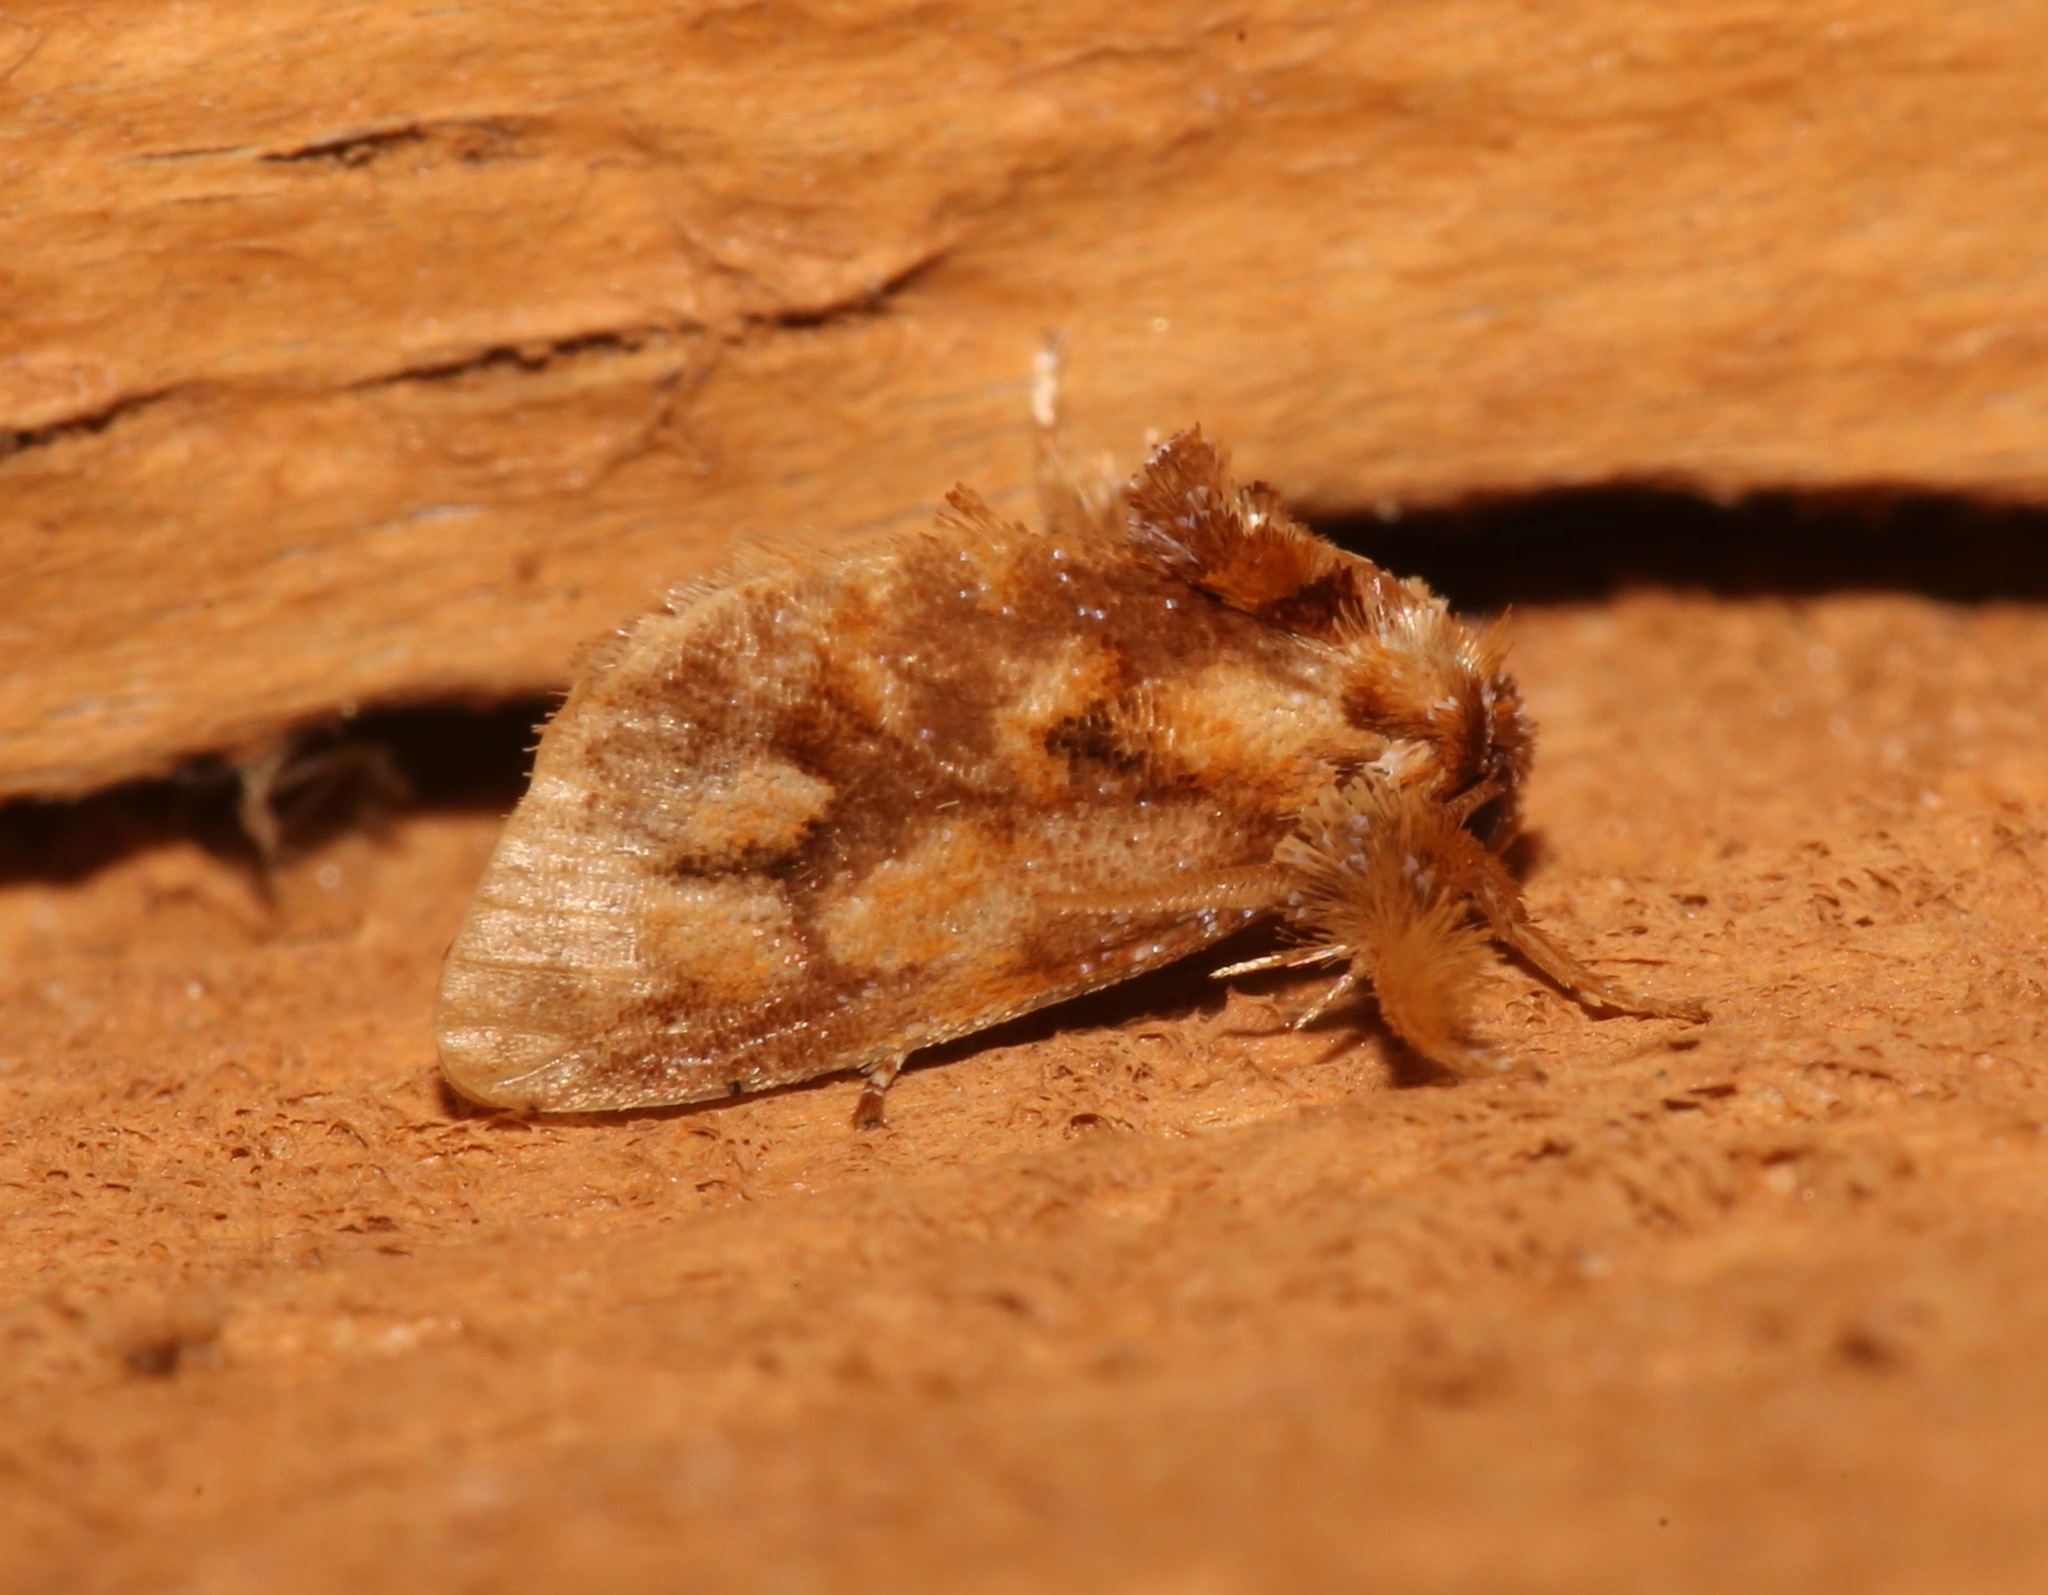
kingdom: Animalia
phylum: Arthropoda
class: Insecta
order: Lepidoptera
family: Limacodidae
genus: Isochaetes
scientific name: Isochaetes beutenmuelleri
